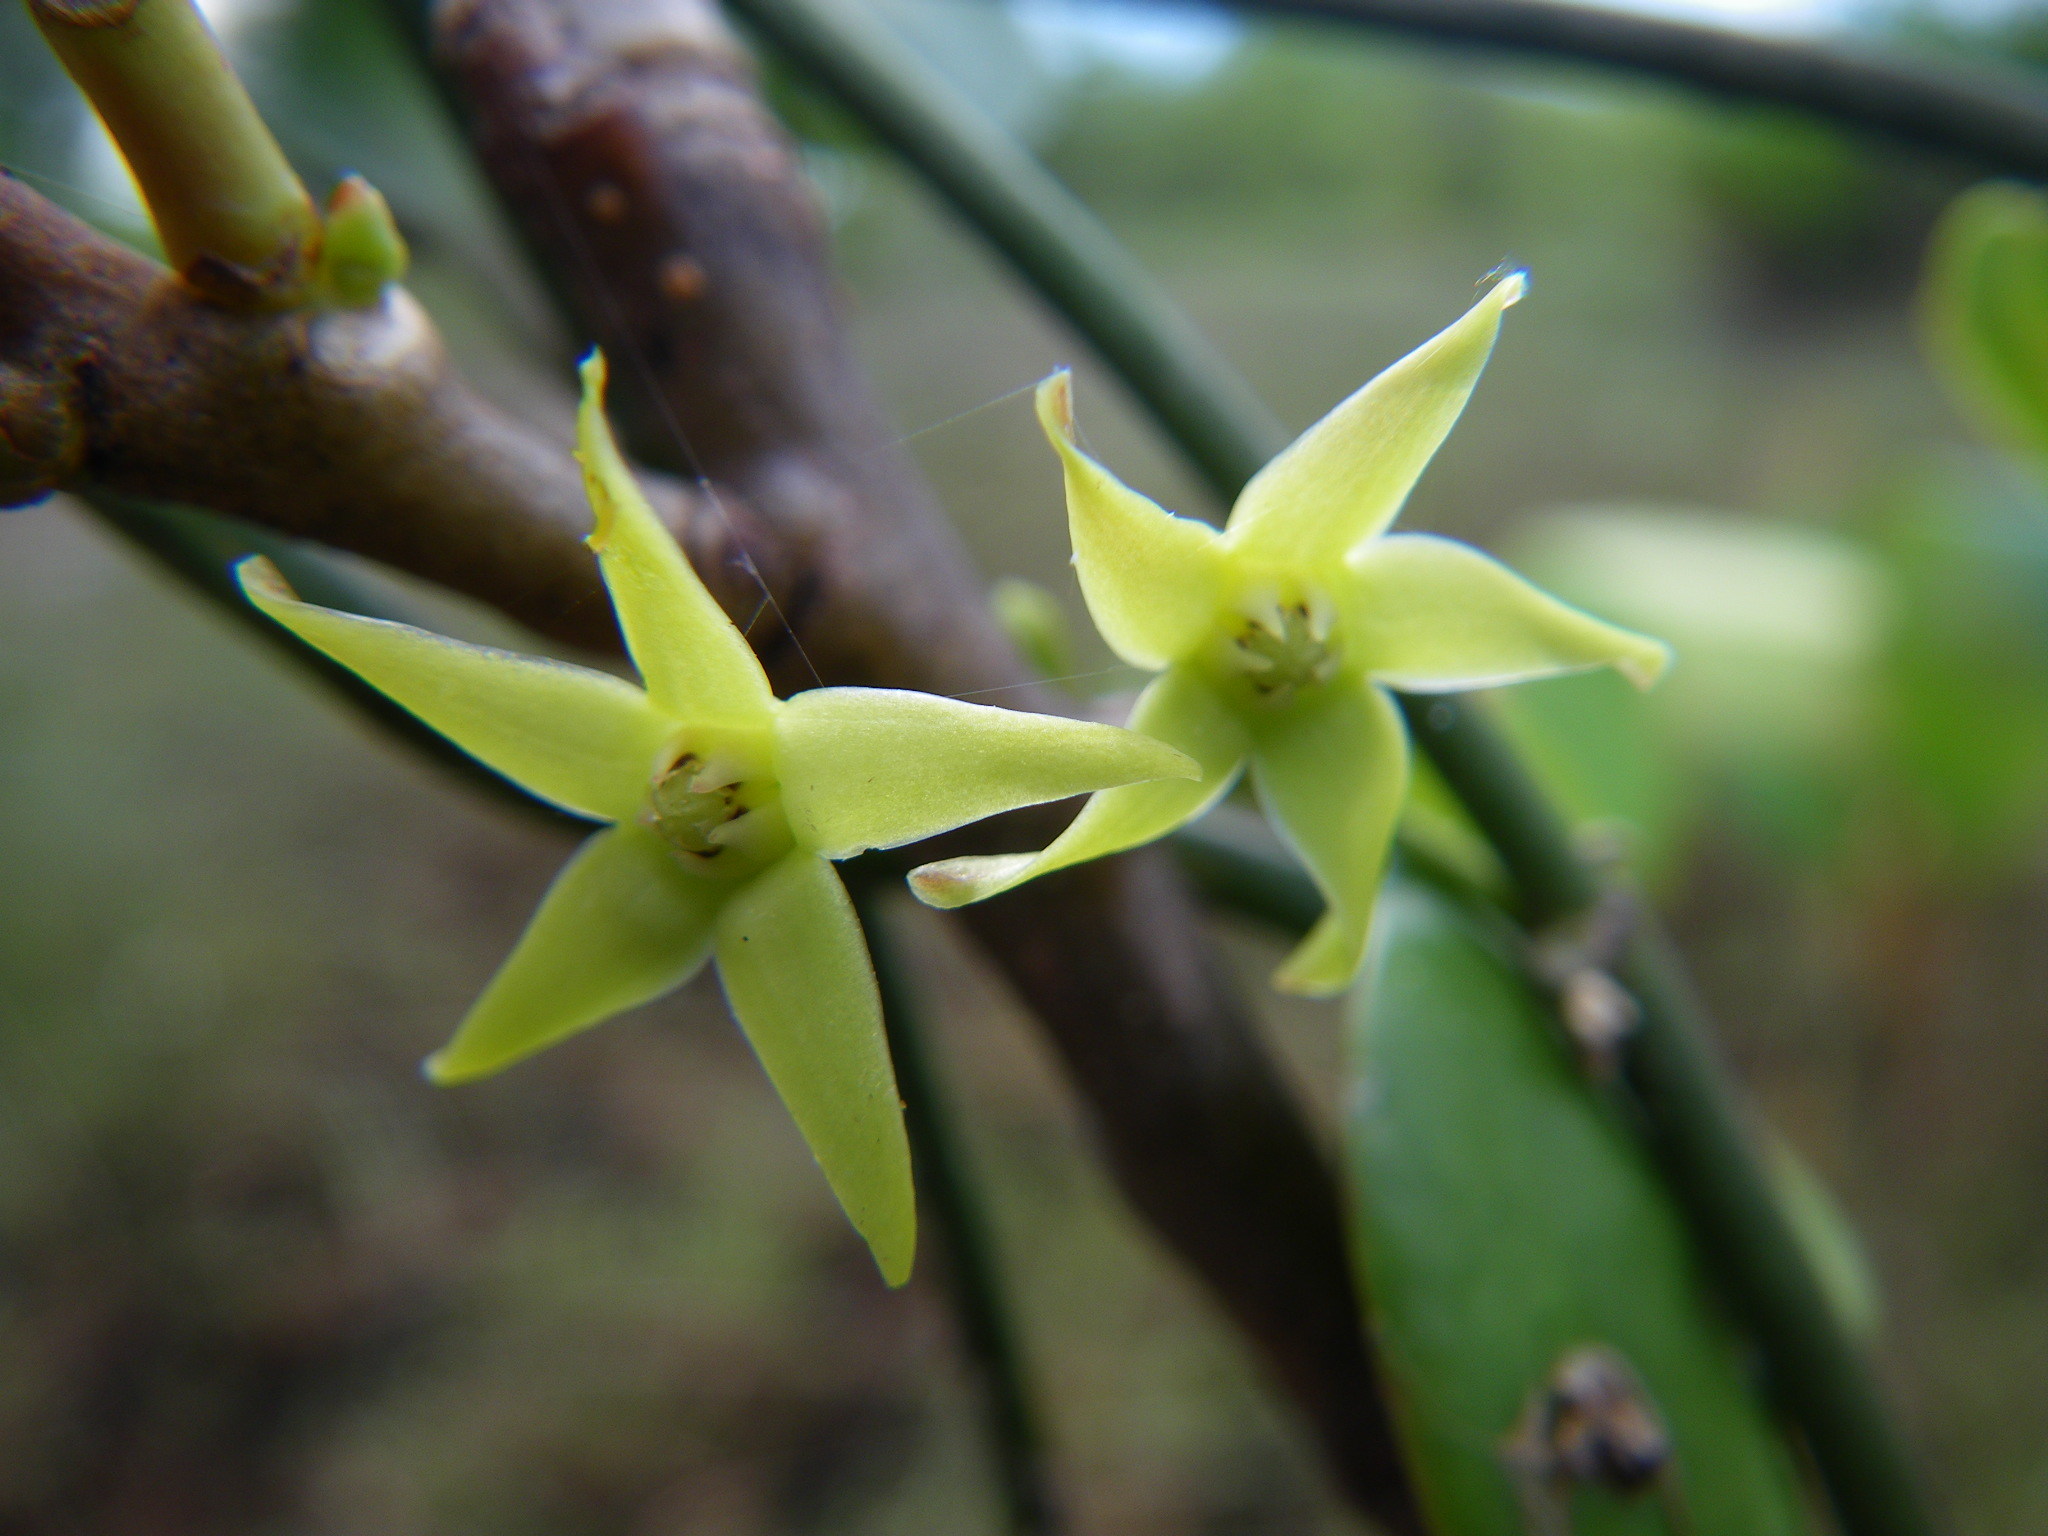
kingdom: Plantae
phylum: Tracheophyta
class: Magnoliopsida
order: Gentianales
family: Apocynaceae
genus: Vincetoxicum
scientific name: Vincetoxicum carnosum
